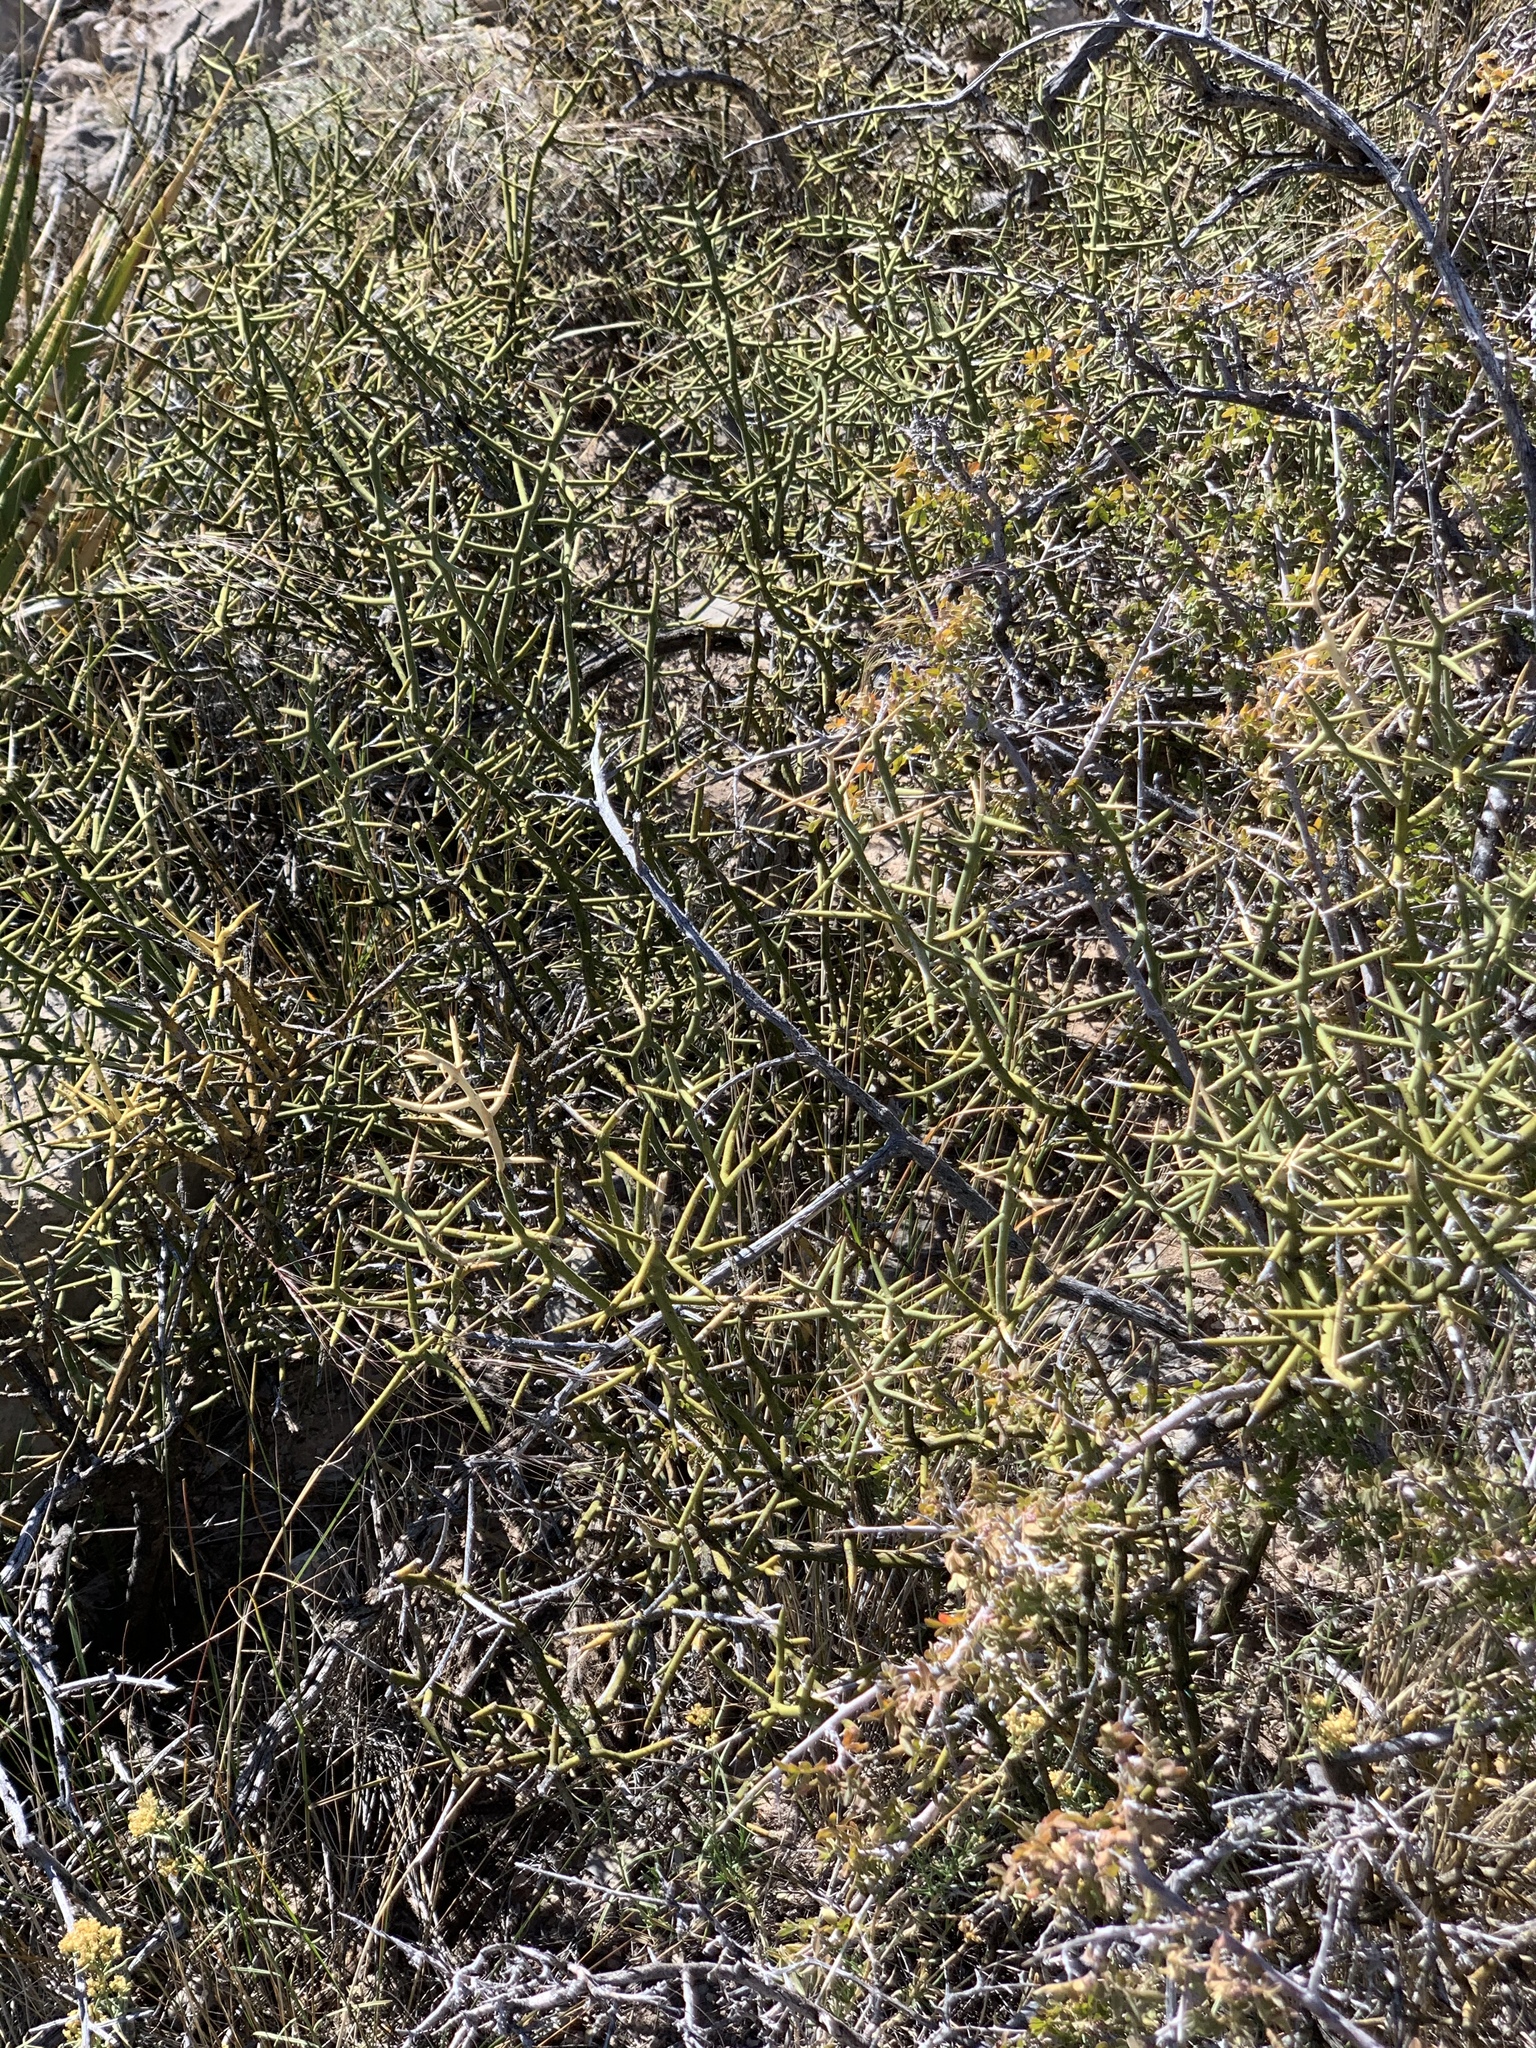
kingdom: Plantae
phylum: Tracheophyta
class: Magnoliopsida
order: Brassicales
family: Koeberliniaceae
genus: Koeberlinia
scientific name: Koeberlinia spinosa
